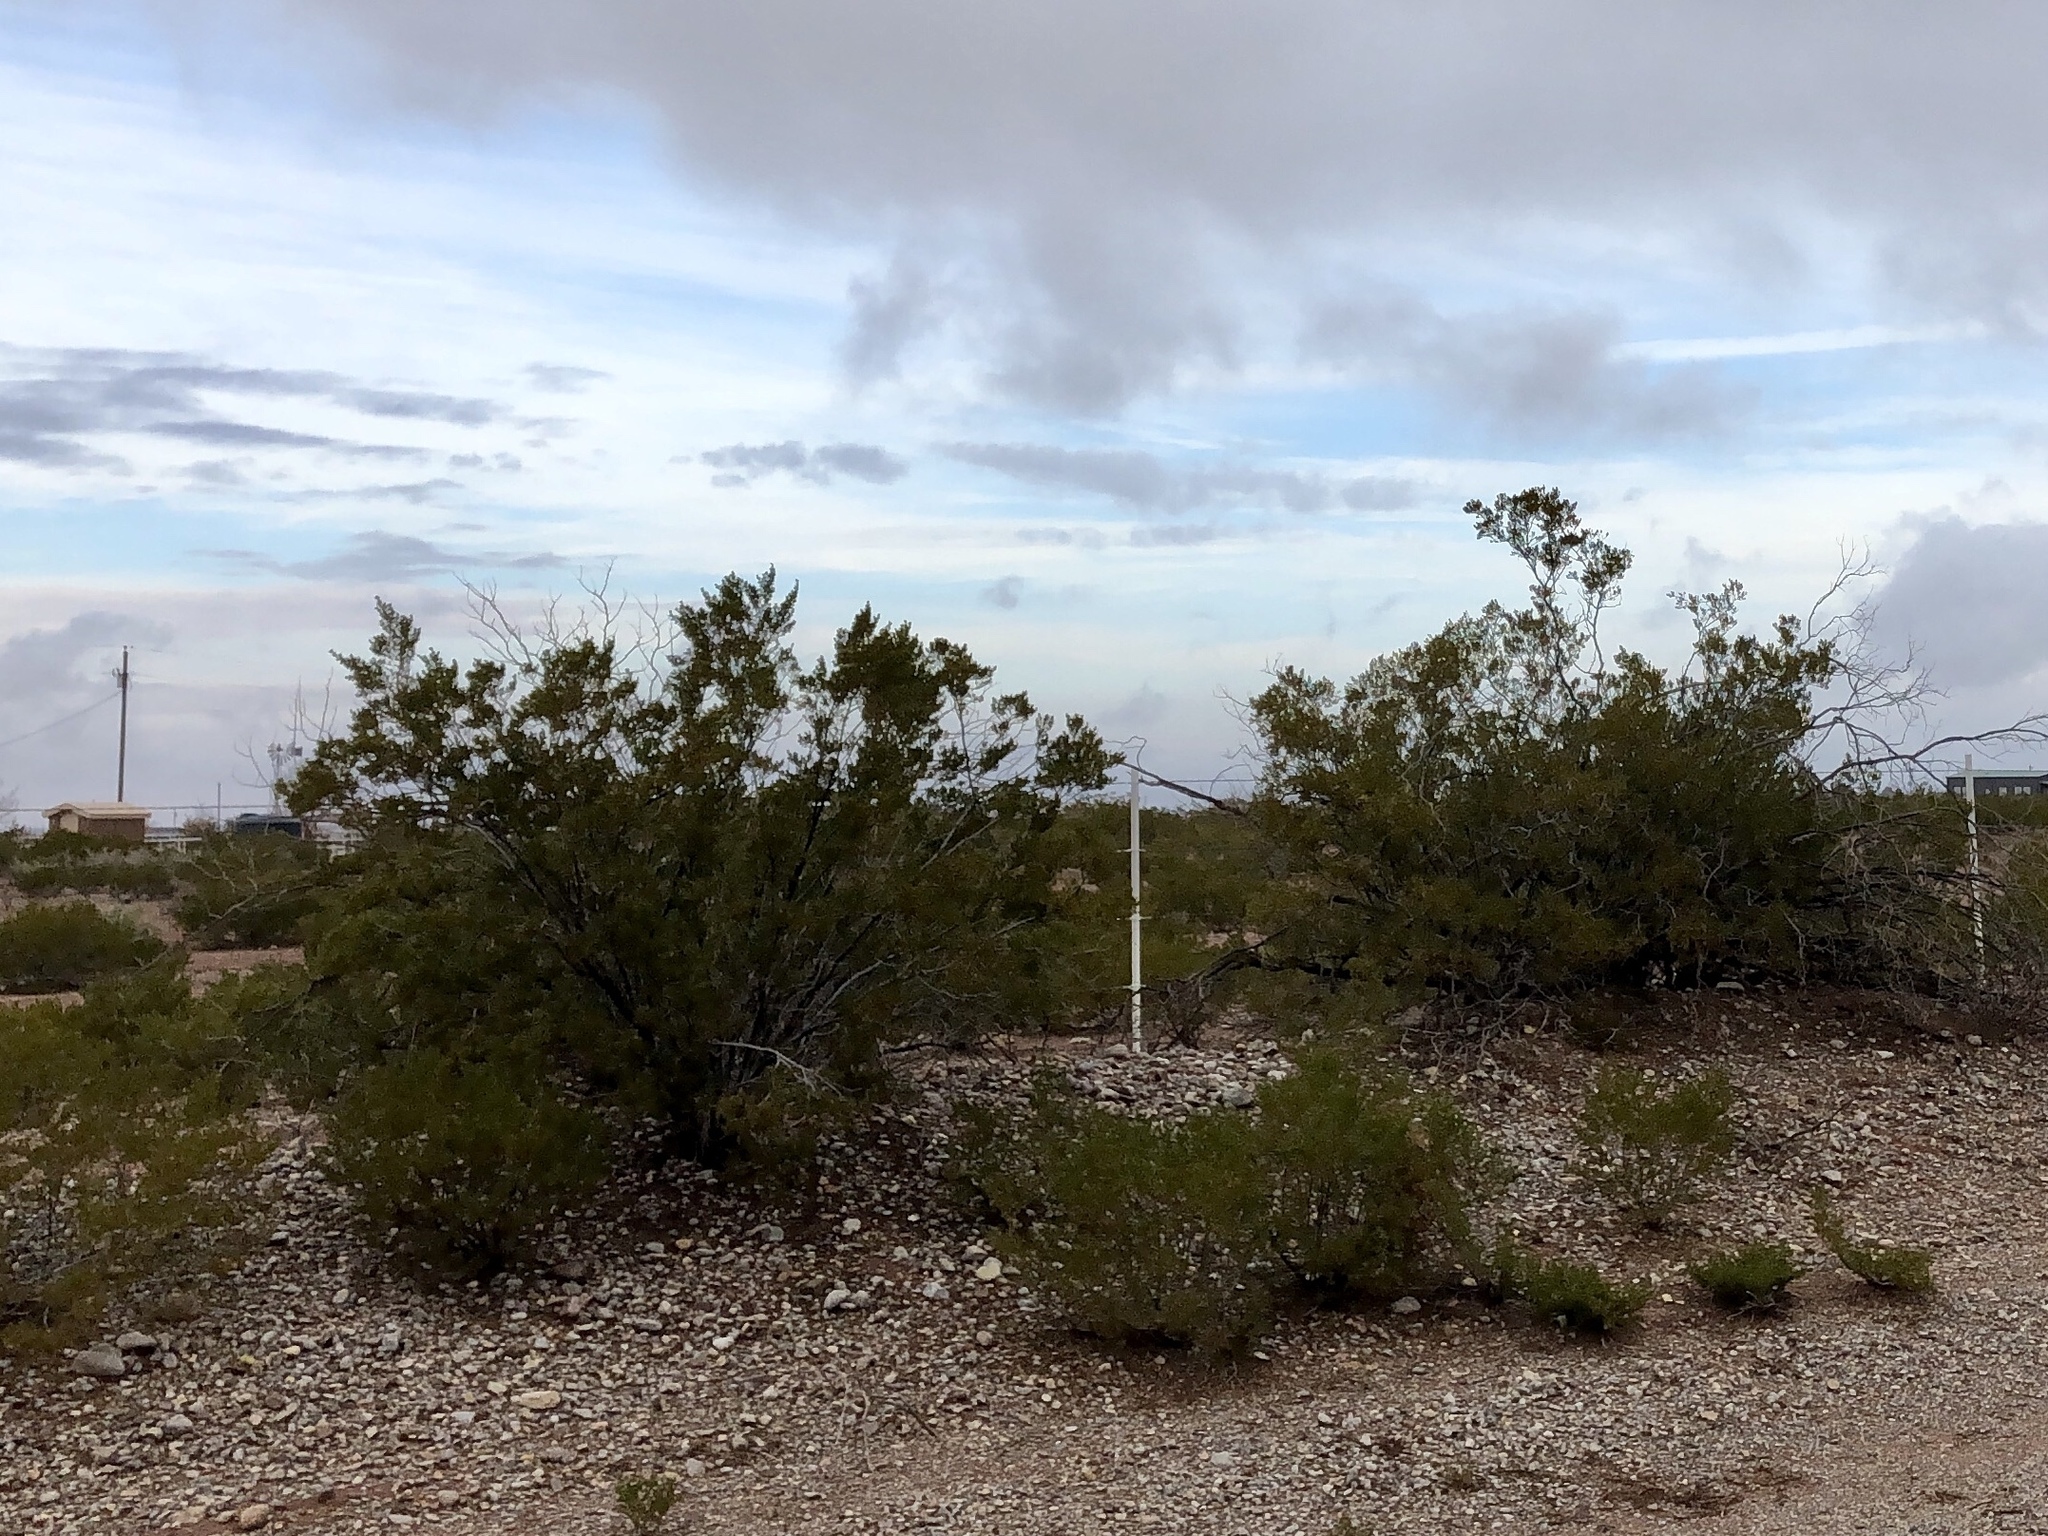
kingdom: Plantae
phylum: Tracheophyta
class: Magnoliopsida
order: Zygophyllales
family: Zygophyllaceae
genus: Larrea
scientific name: Larrea tridentata
